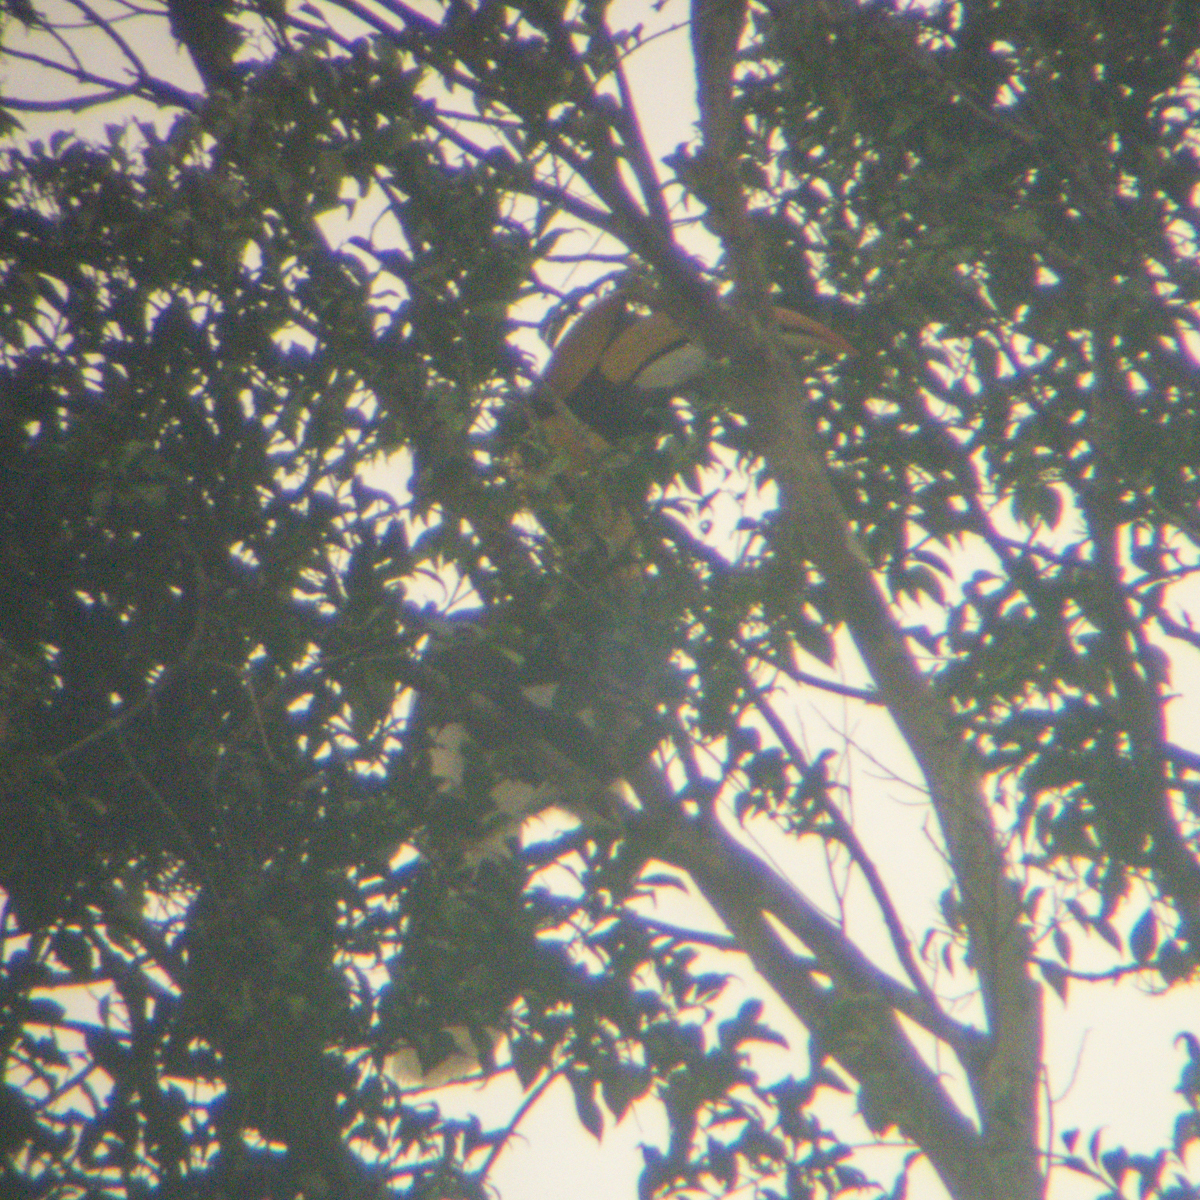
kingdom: Animalia
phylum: Chordata
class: Aves
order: Bucerotiformes
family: Bucerotidae
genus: Buceros
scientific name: Buceros bicornis
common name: Great hornbill
